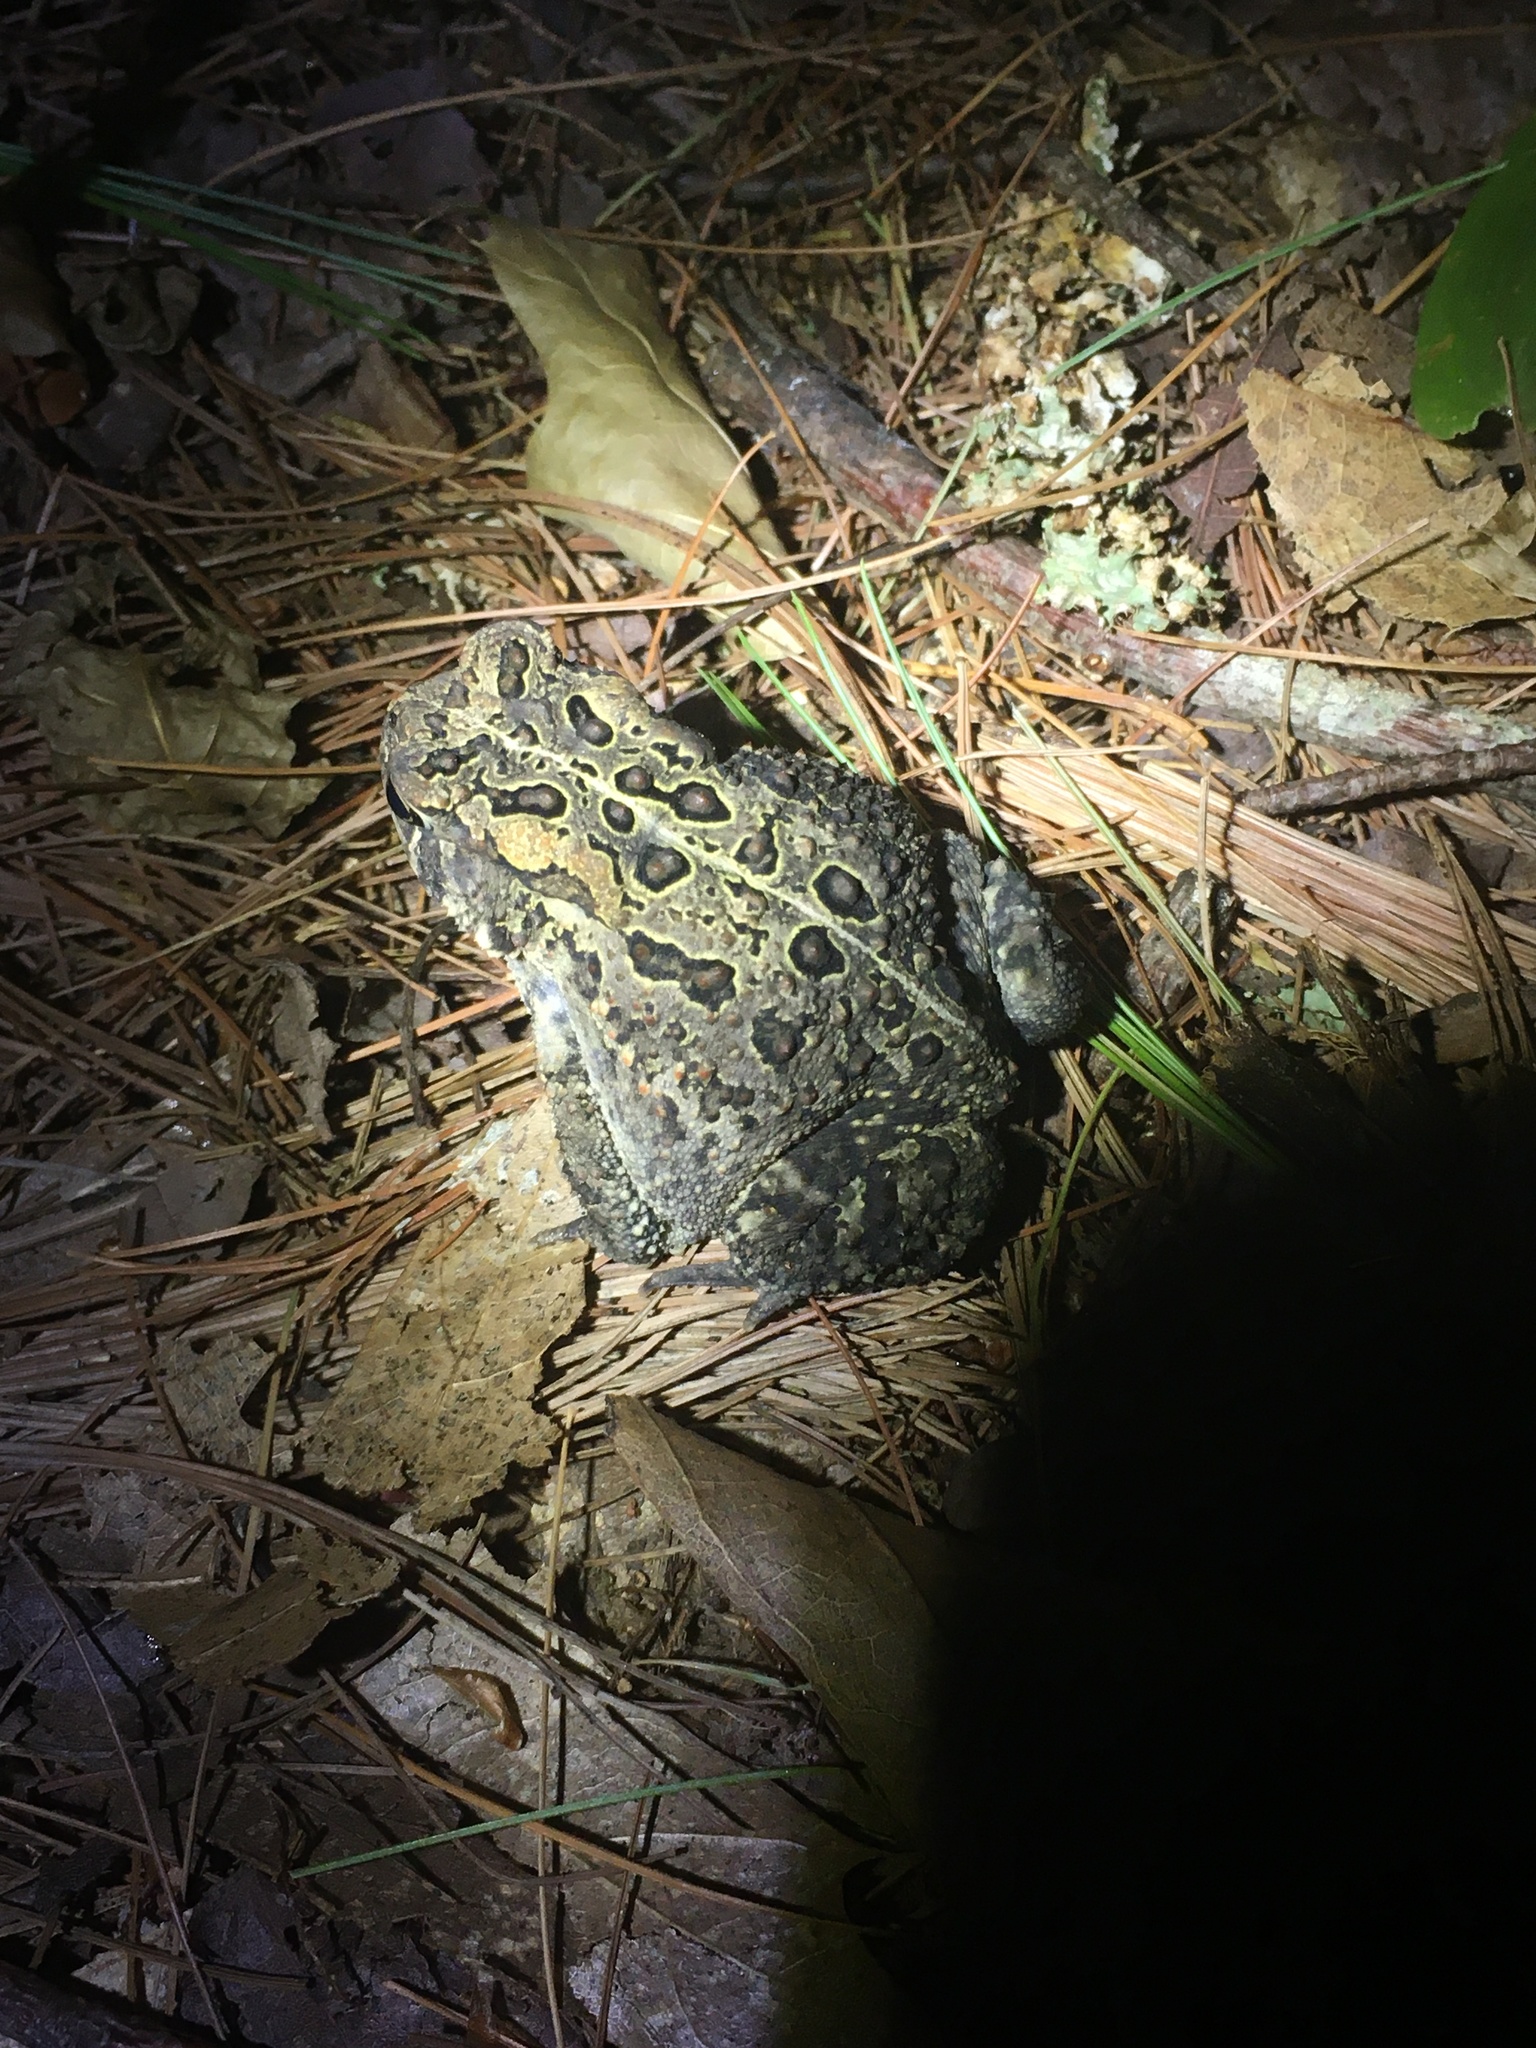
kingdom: Animalia
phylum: Chordata
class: Amphibia
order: Anura
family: Bufonidae
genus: Anaxyrus
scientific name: Anaxyrus americanus
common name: American toad
